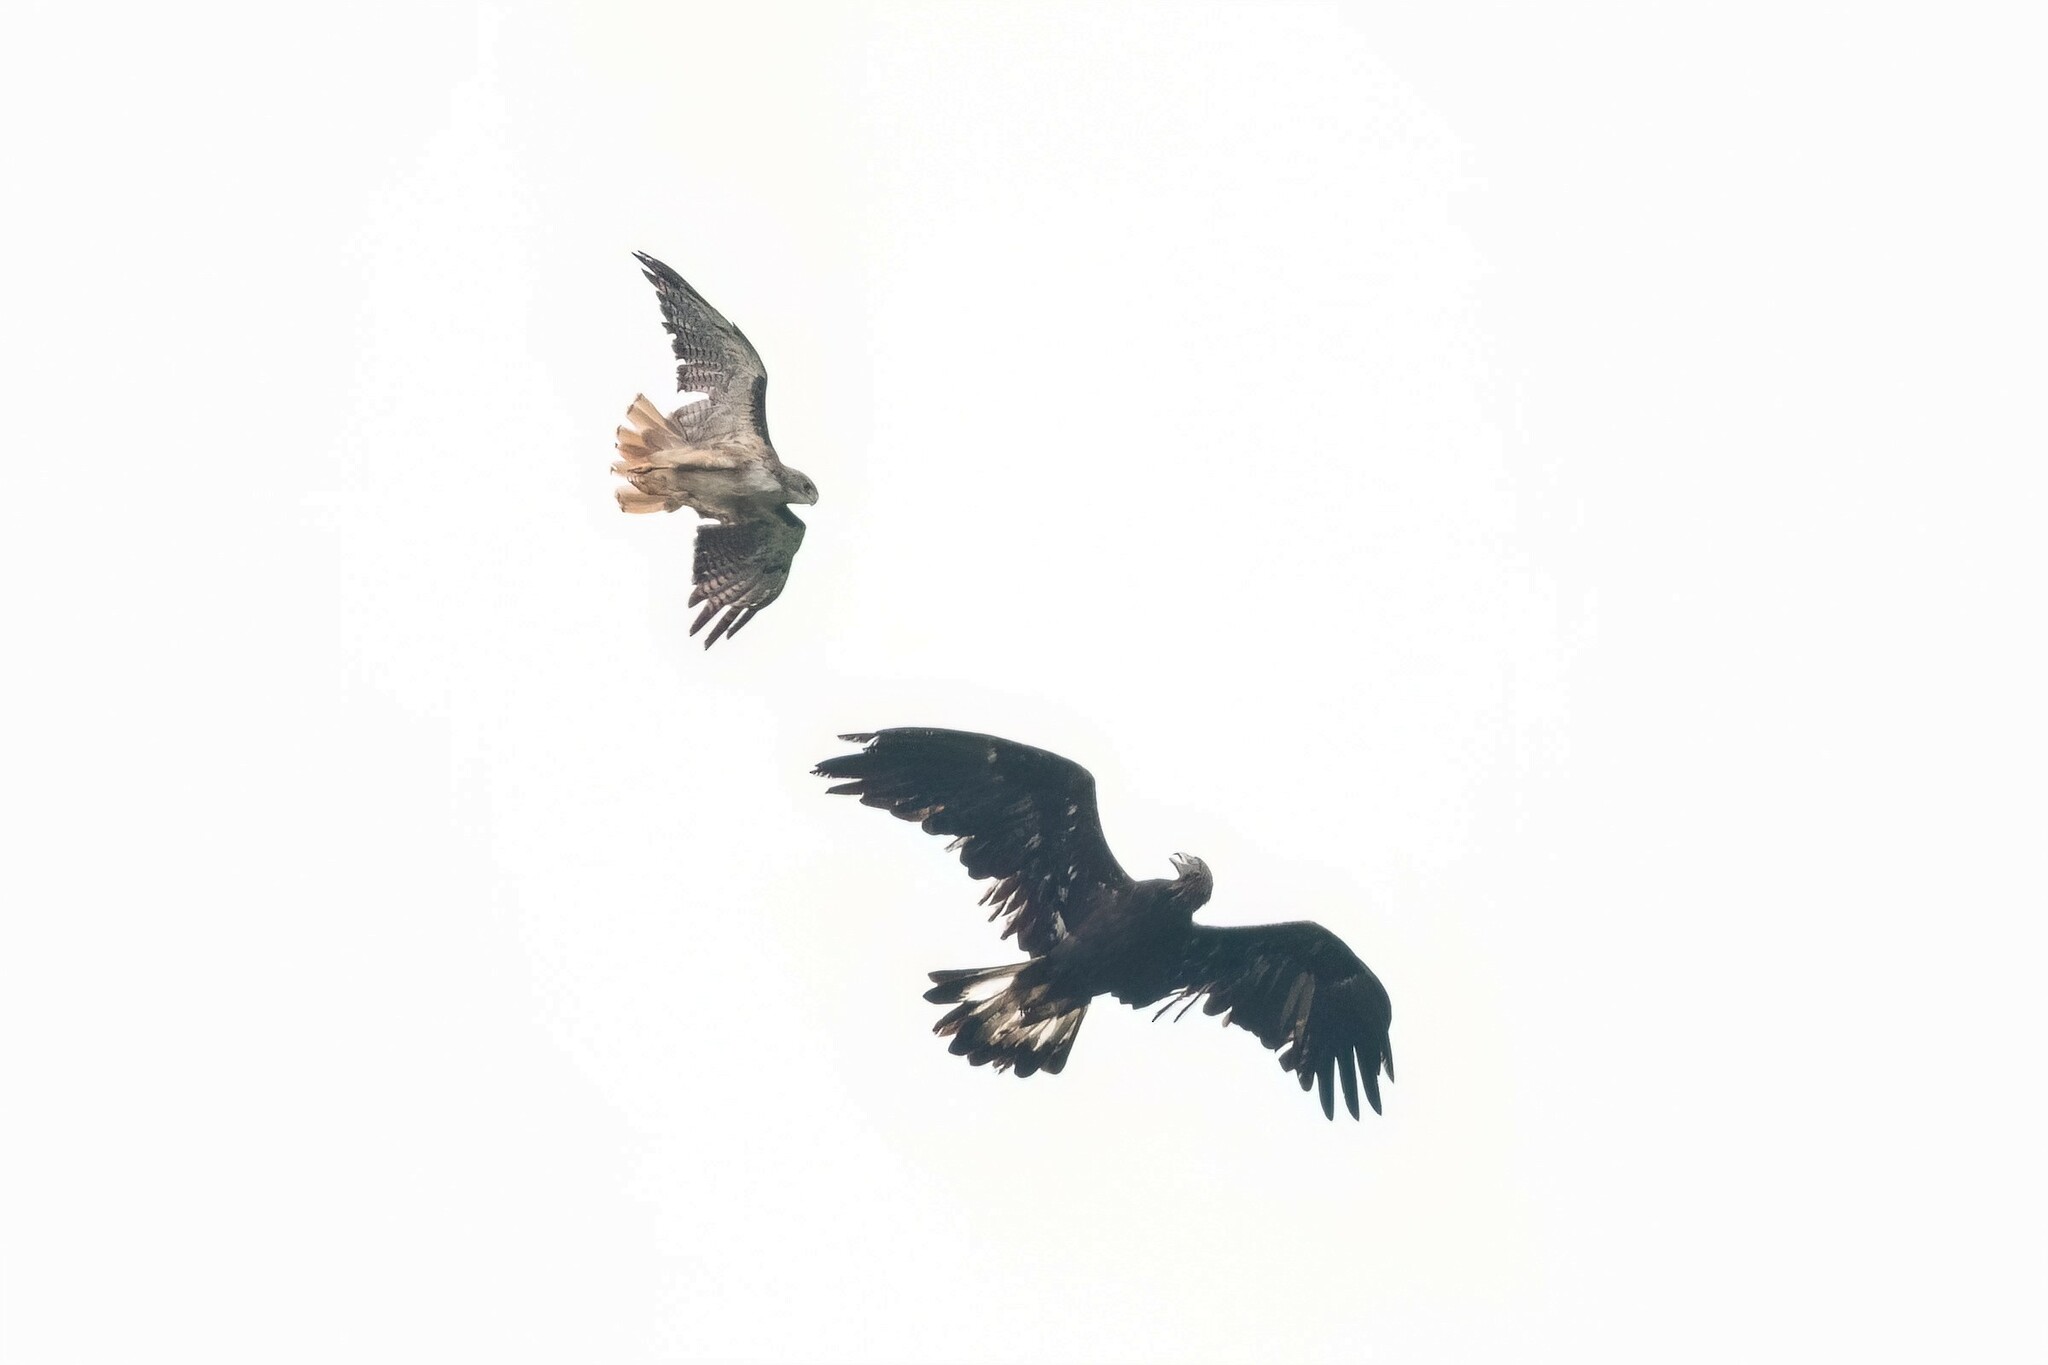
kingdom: Animalia
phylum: Chordata
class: Aves
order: Accipitriformes
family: Accipitridae
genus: Aquila
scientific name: Aquila chrysaetos
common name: Golden eagle
